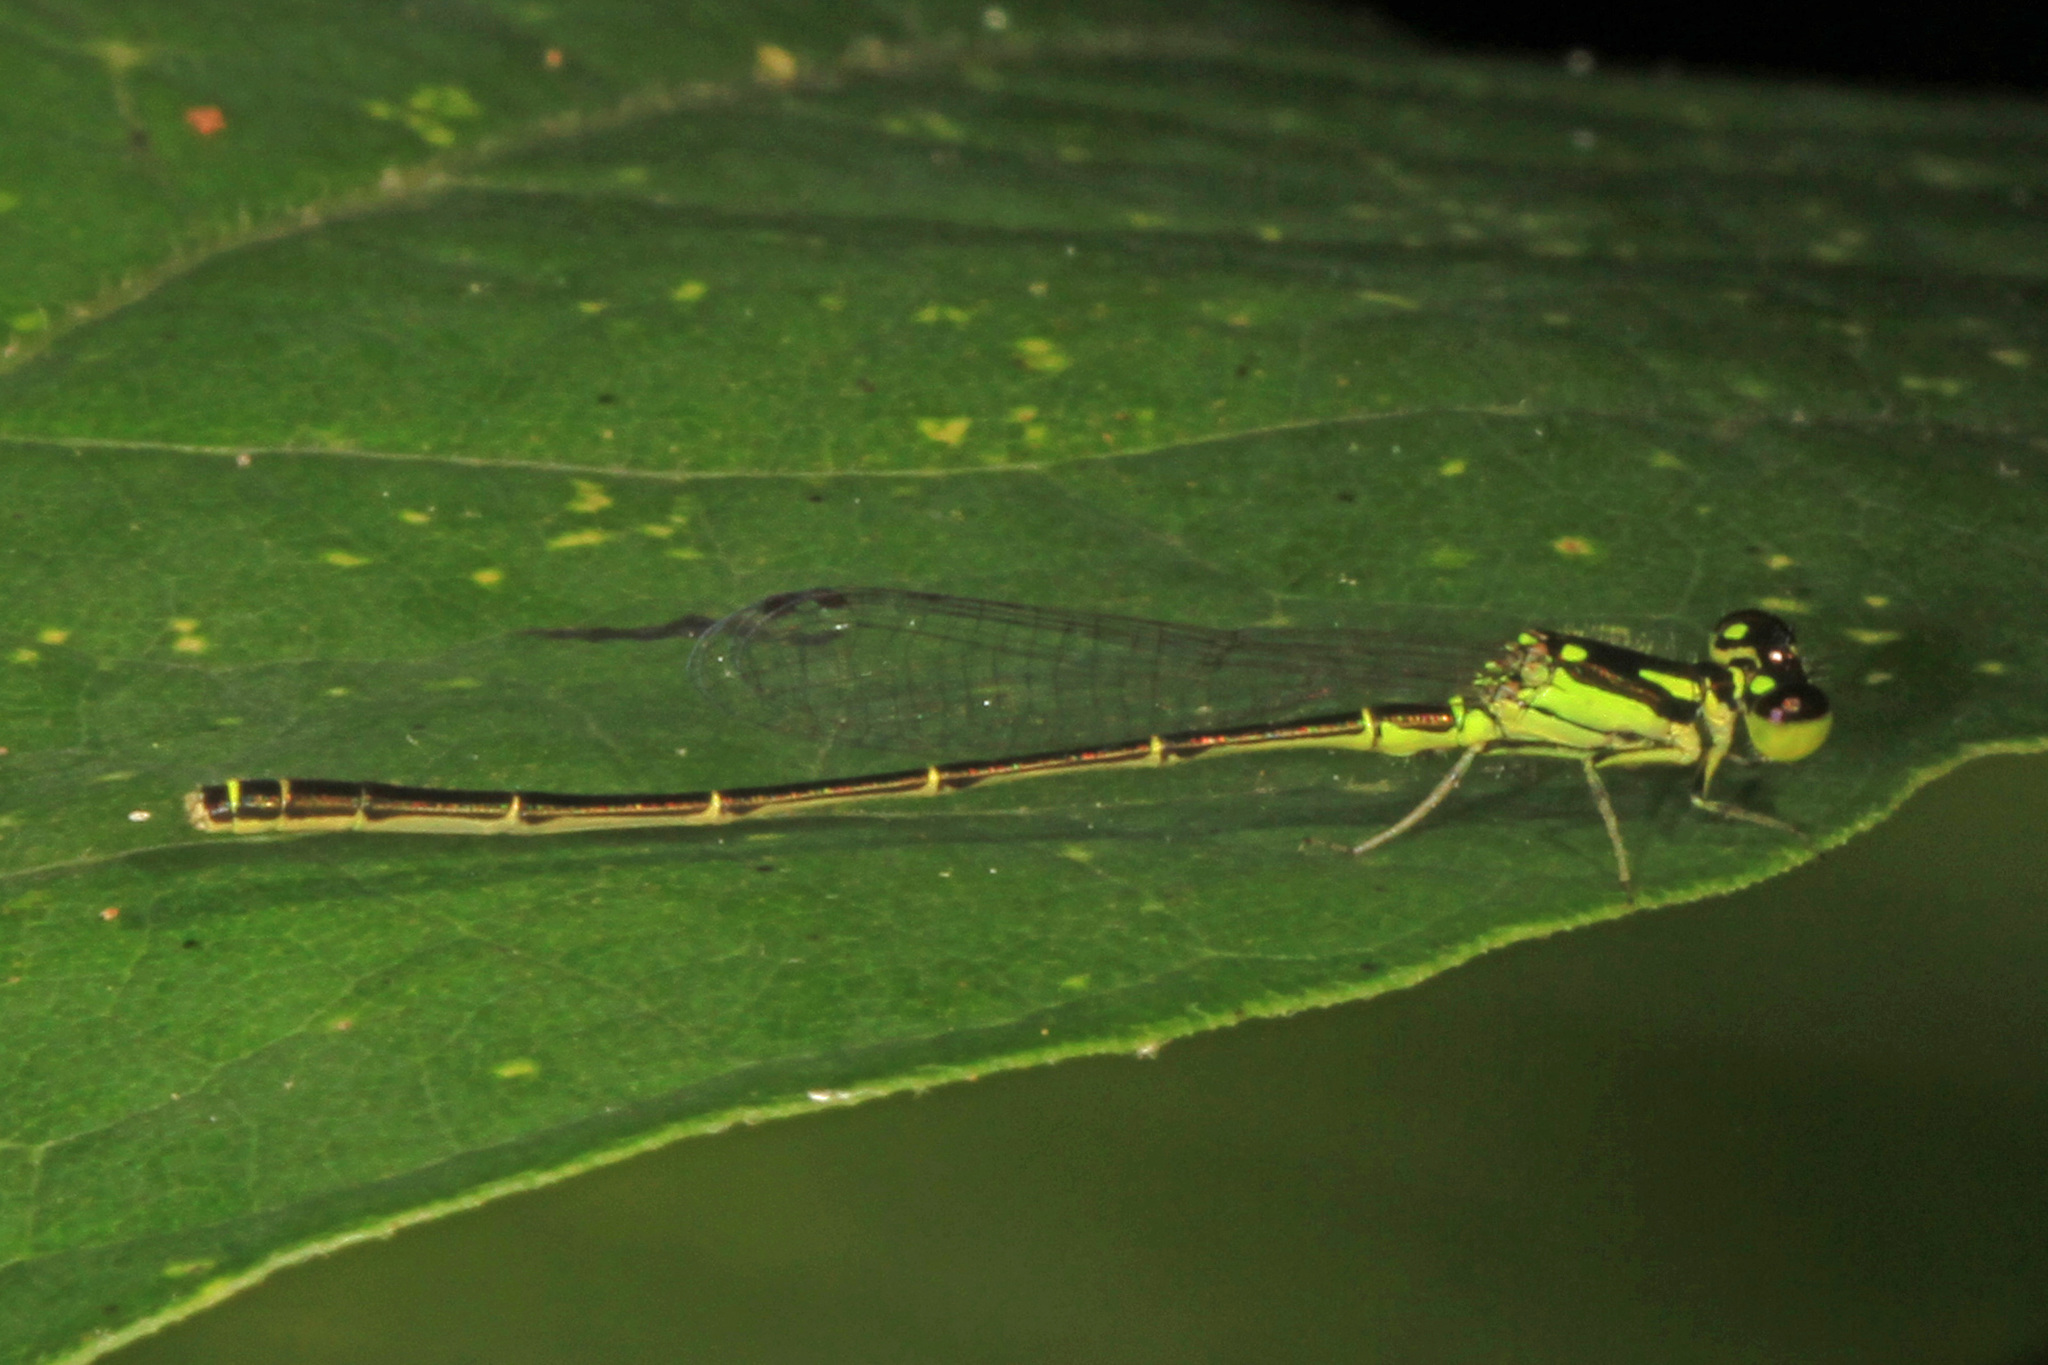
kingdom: Animalia
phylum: Arthropoda
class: Insecta
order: Odonata
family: Coenagrionidae
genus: Ischnura
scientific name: Ischnura posita
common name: Fragile forktail
